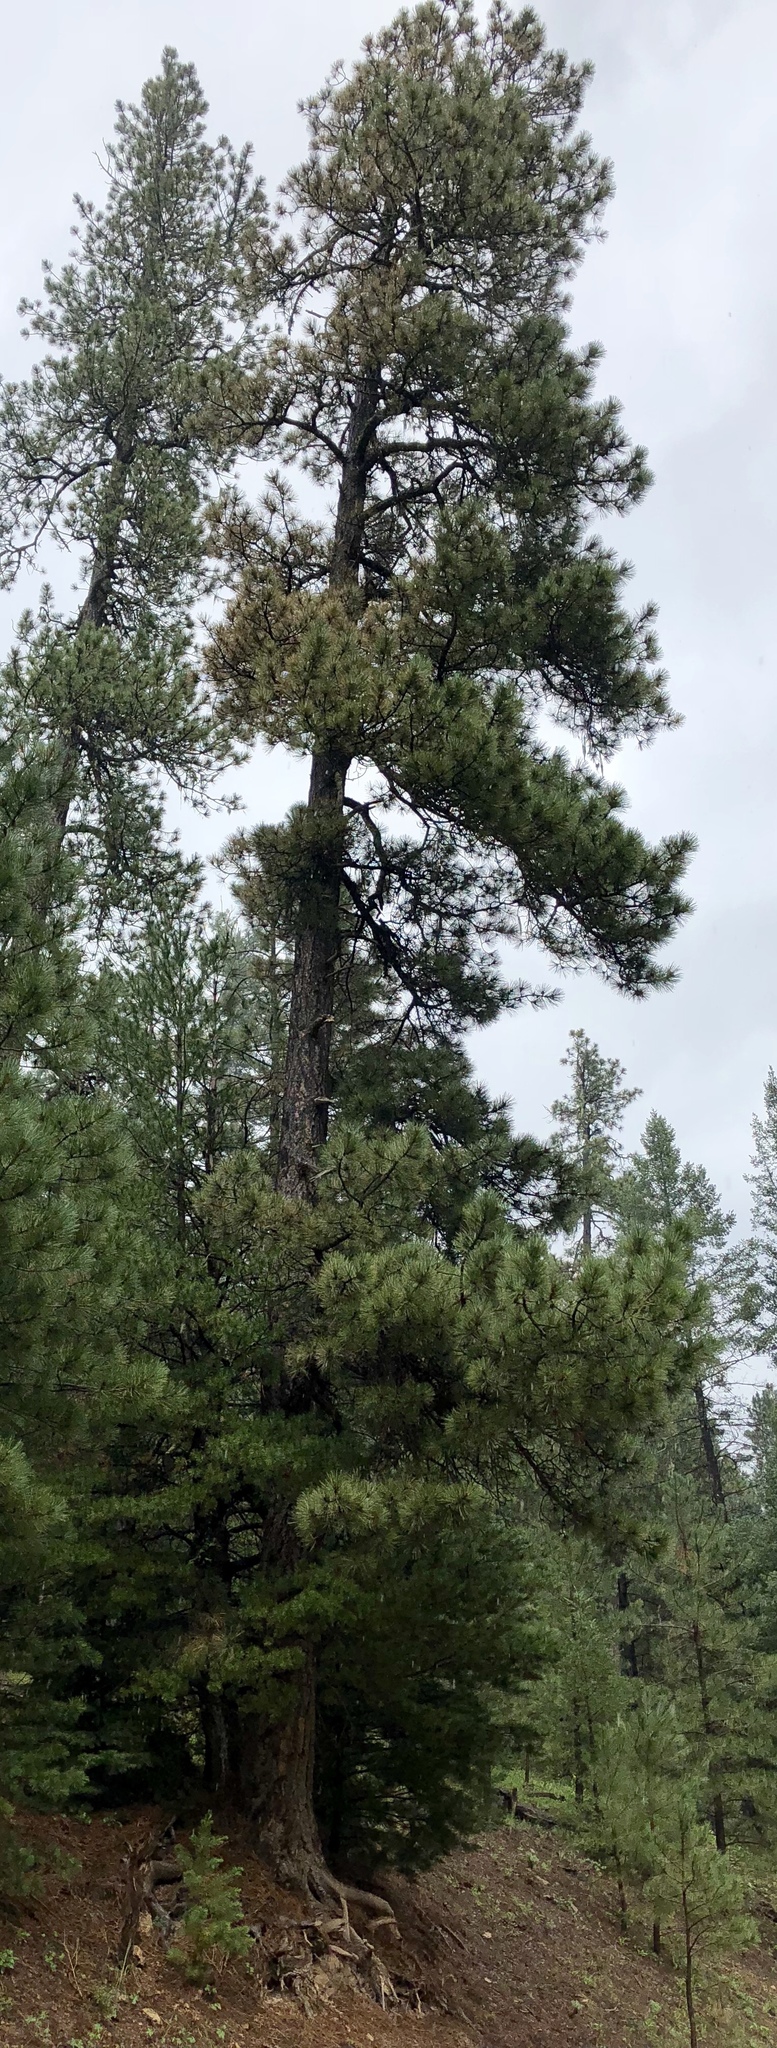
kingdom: Plantae
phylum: Tracheophyta
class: Pinopsida
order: Pinales
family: Pinaceae
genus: Pinus
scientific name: Pinus ponderosa
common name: Western yellow-pine
